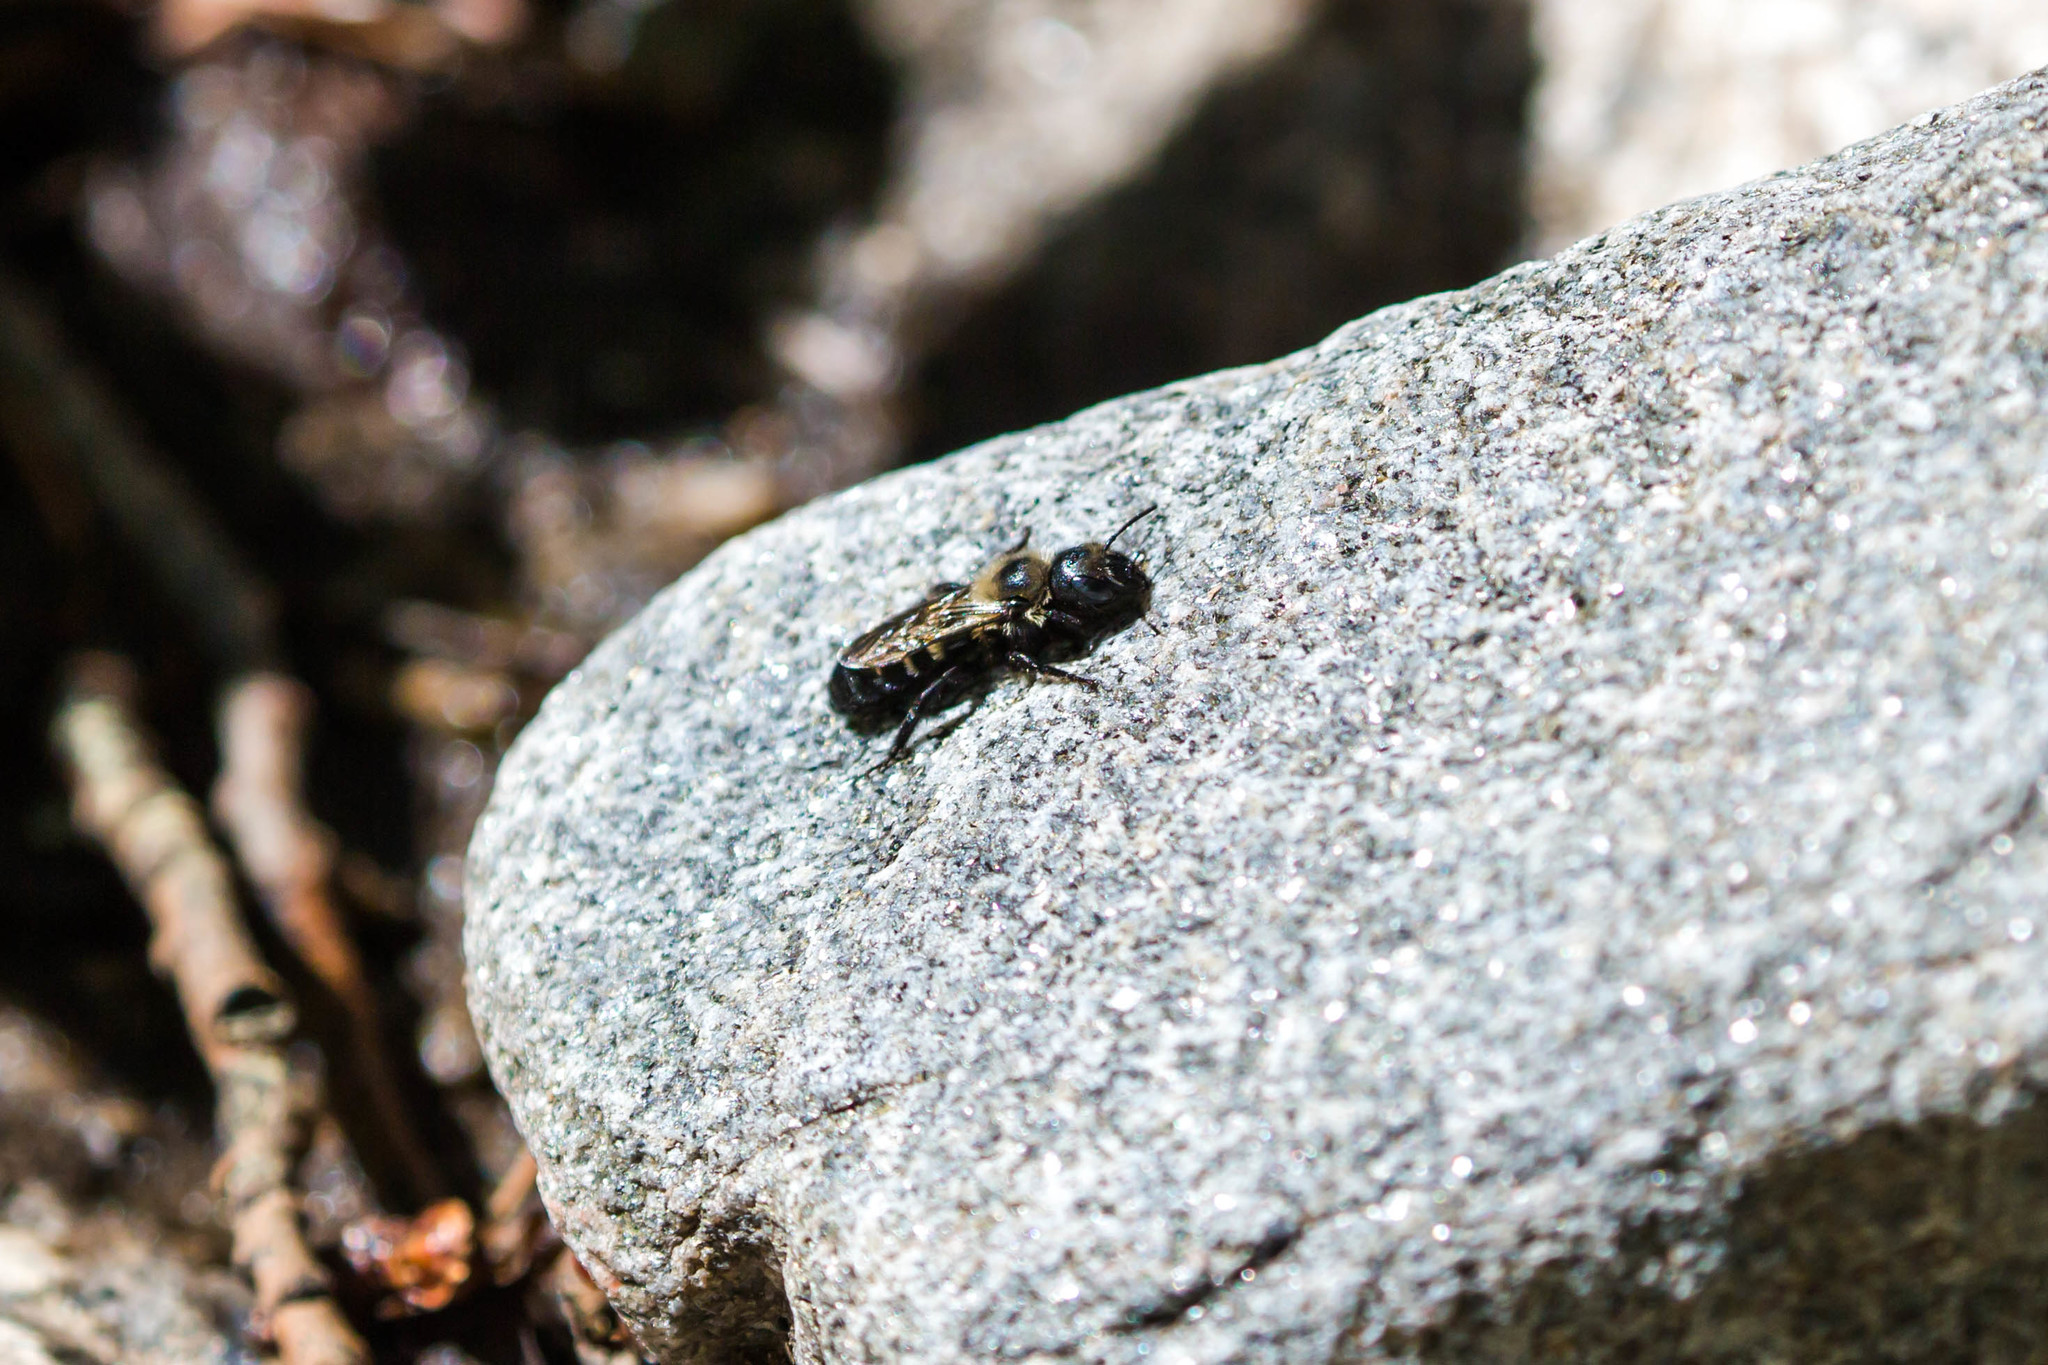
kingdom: Animalia
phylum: Arthropoda
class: Insecta
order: Hymenoptera
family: Megachilidae
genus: Hoplitis
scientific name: Hoplitis albifrons
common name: White-fronted small-mason
